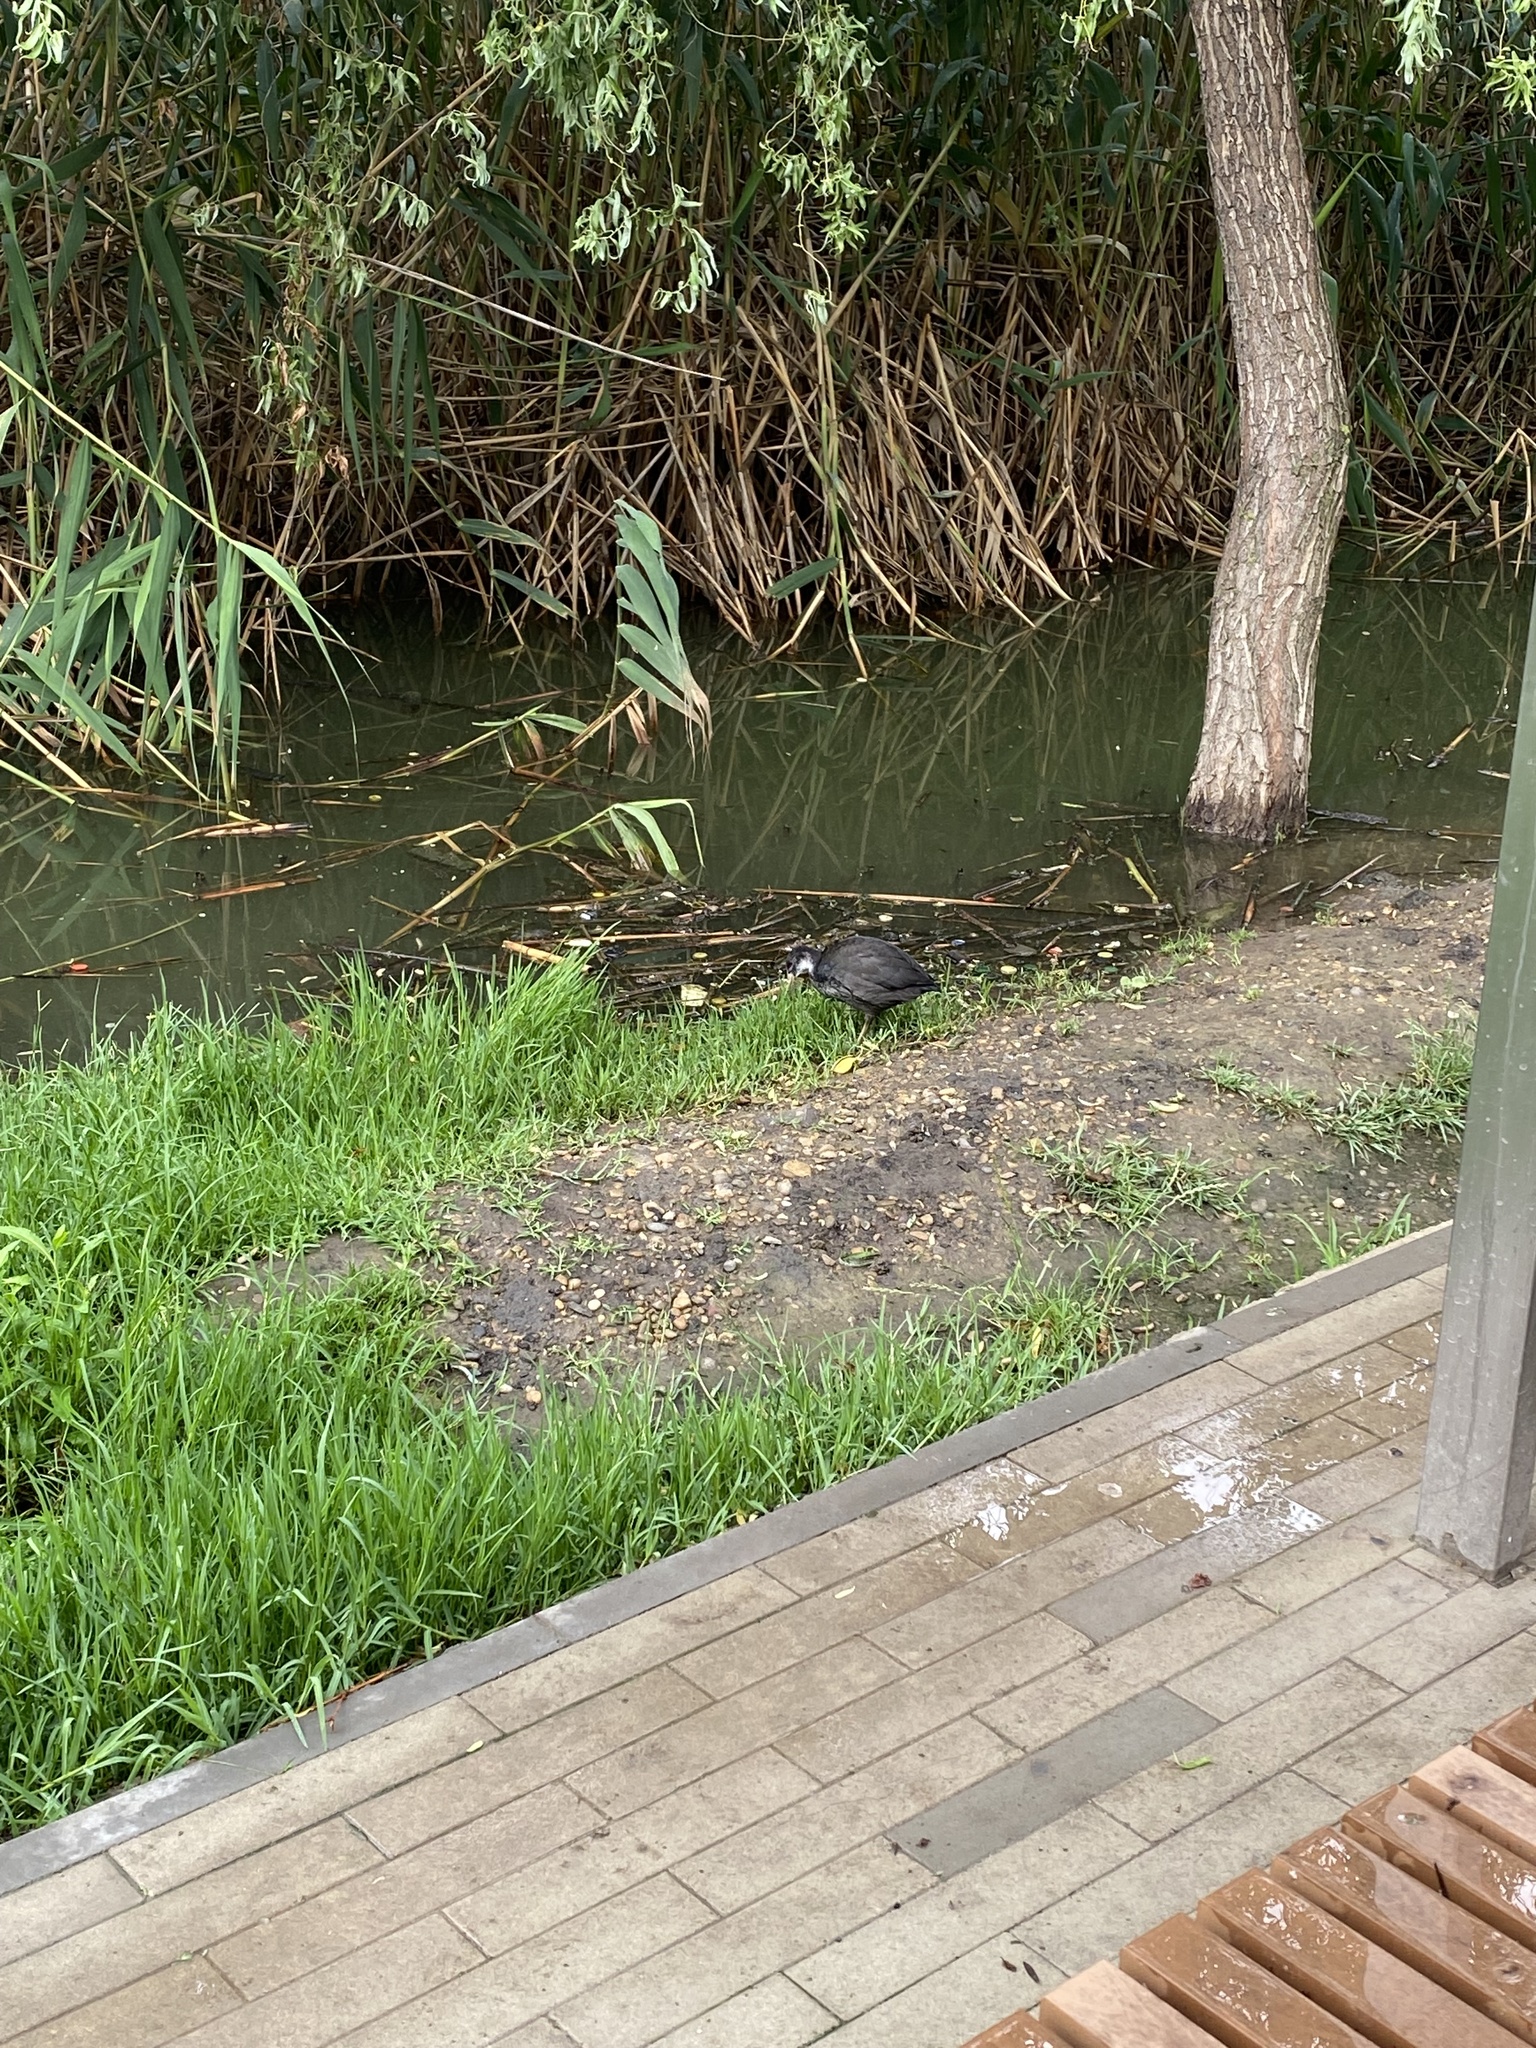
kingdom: Animalia
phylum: Chordata
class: Aves
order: Gruiformes
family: Rallidae
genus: Fulica
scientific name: Fulica atra
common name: Eurasian coot
